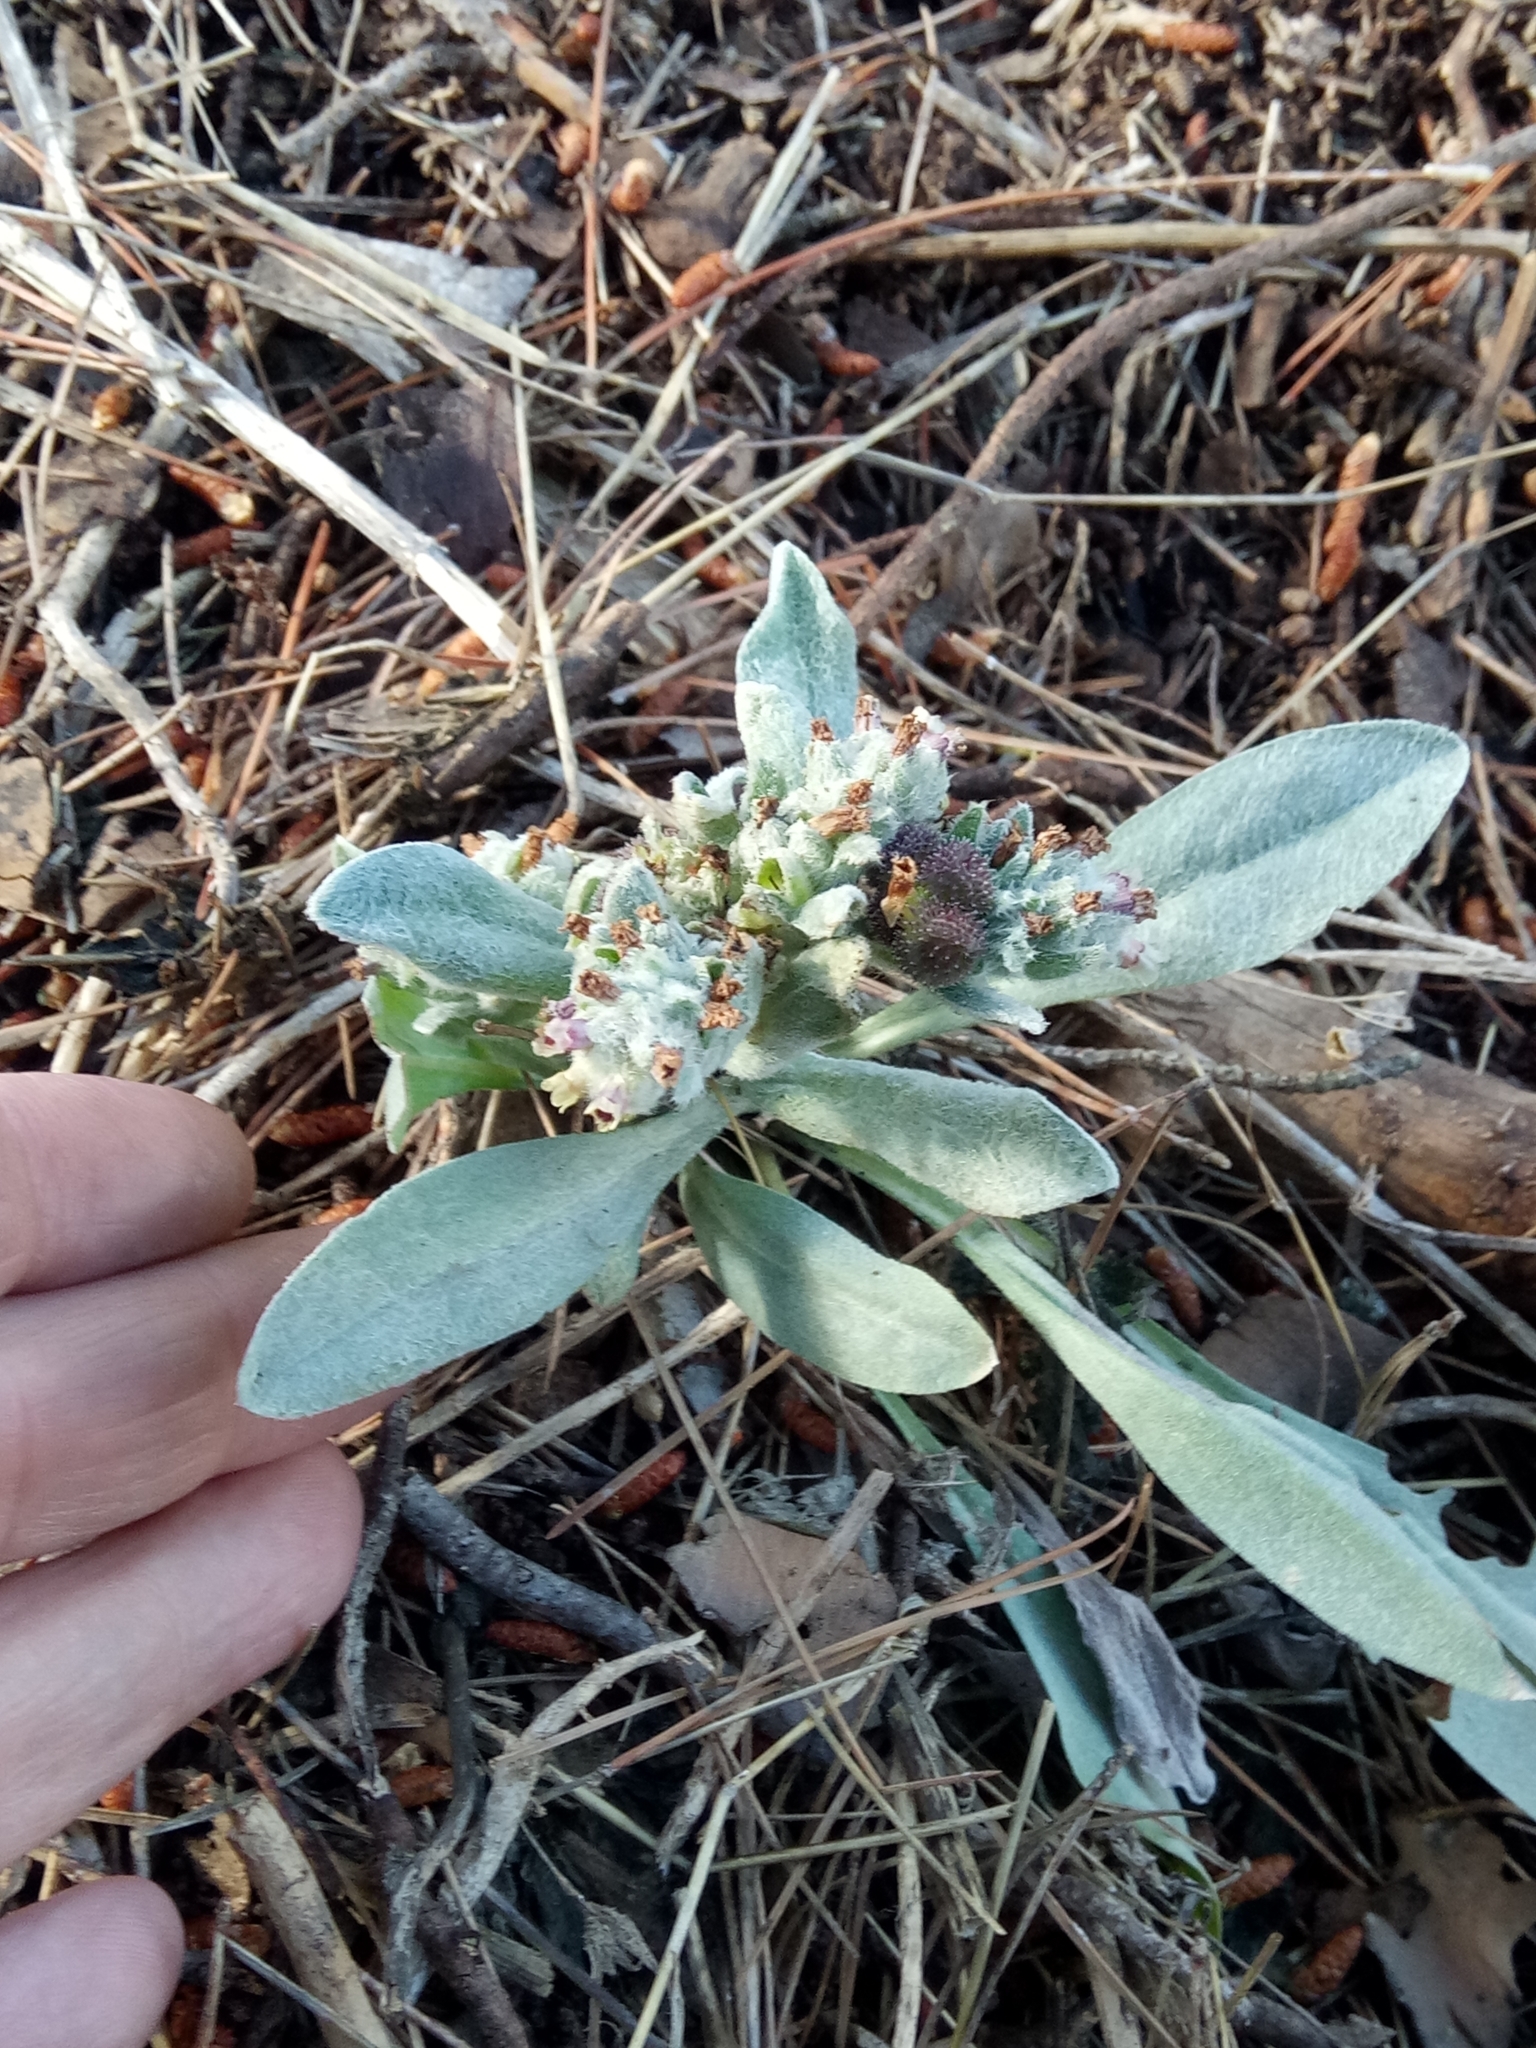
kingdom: Plantae
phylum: Tracheophyta
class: Magnoliopsida
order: Boraginales
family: Boraginaceae
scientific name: Boraginaceae
